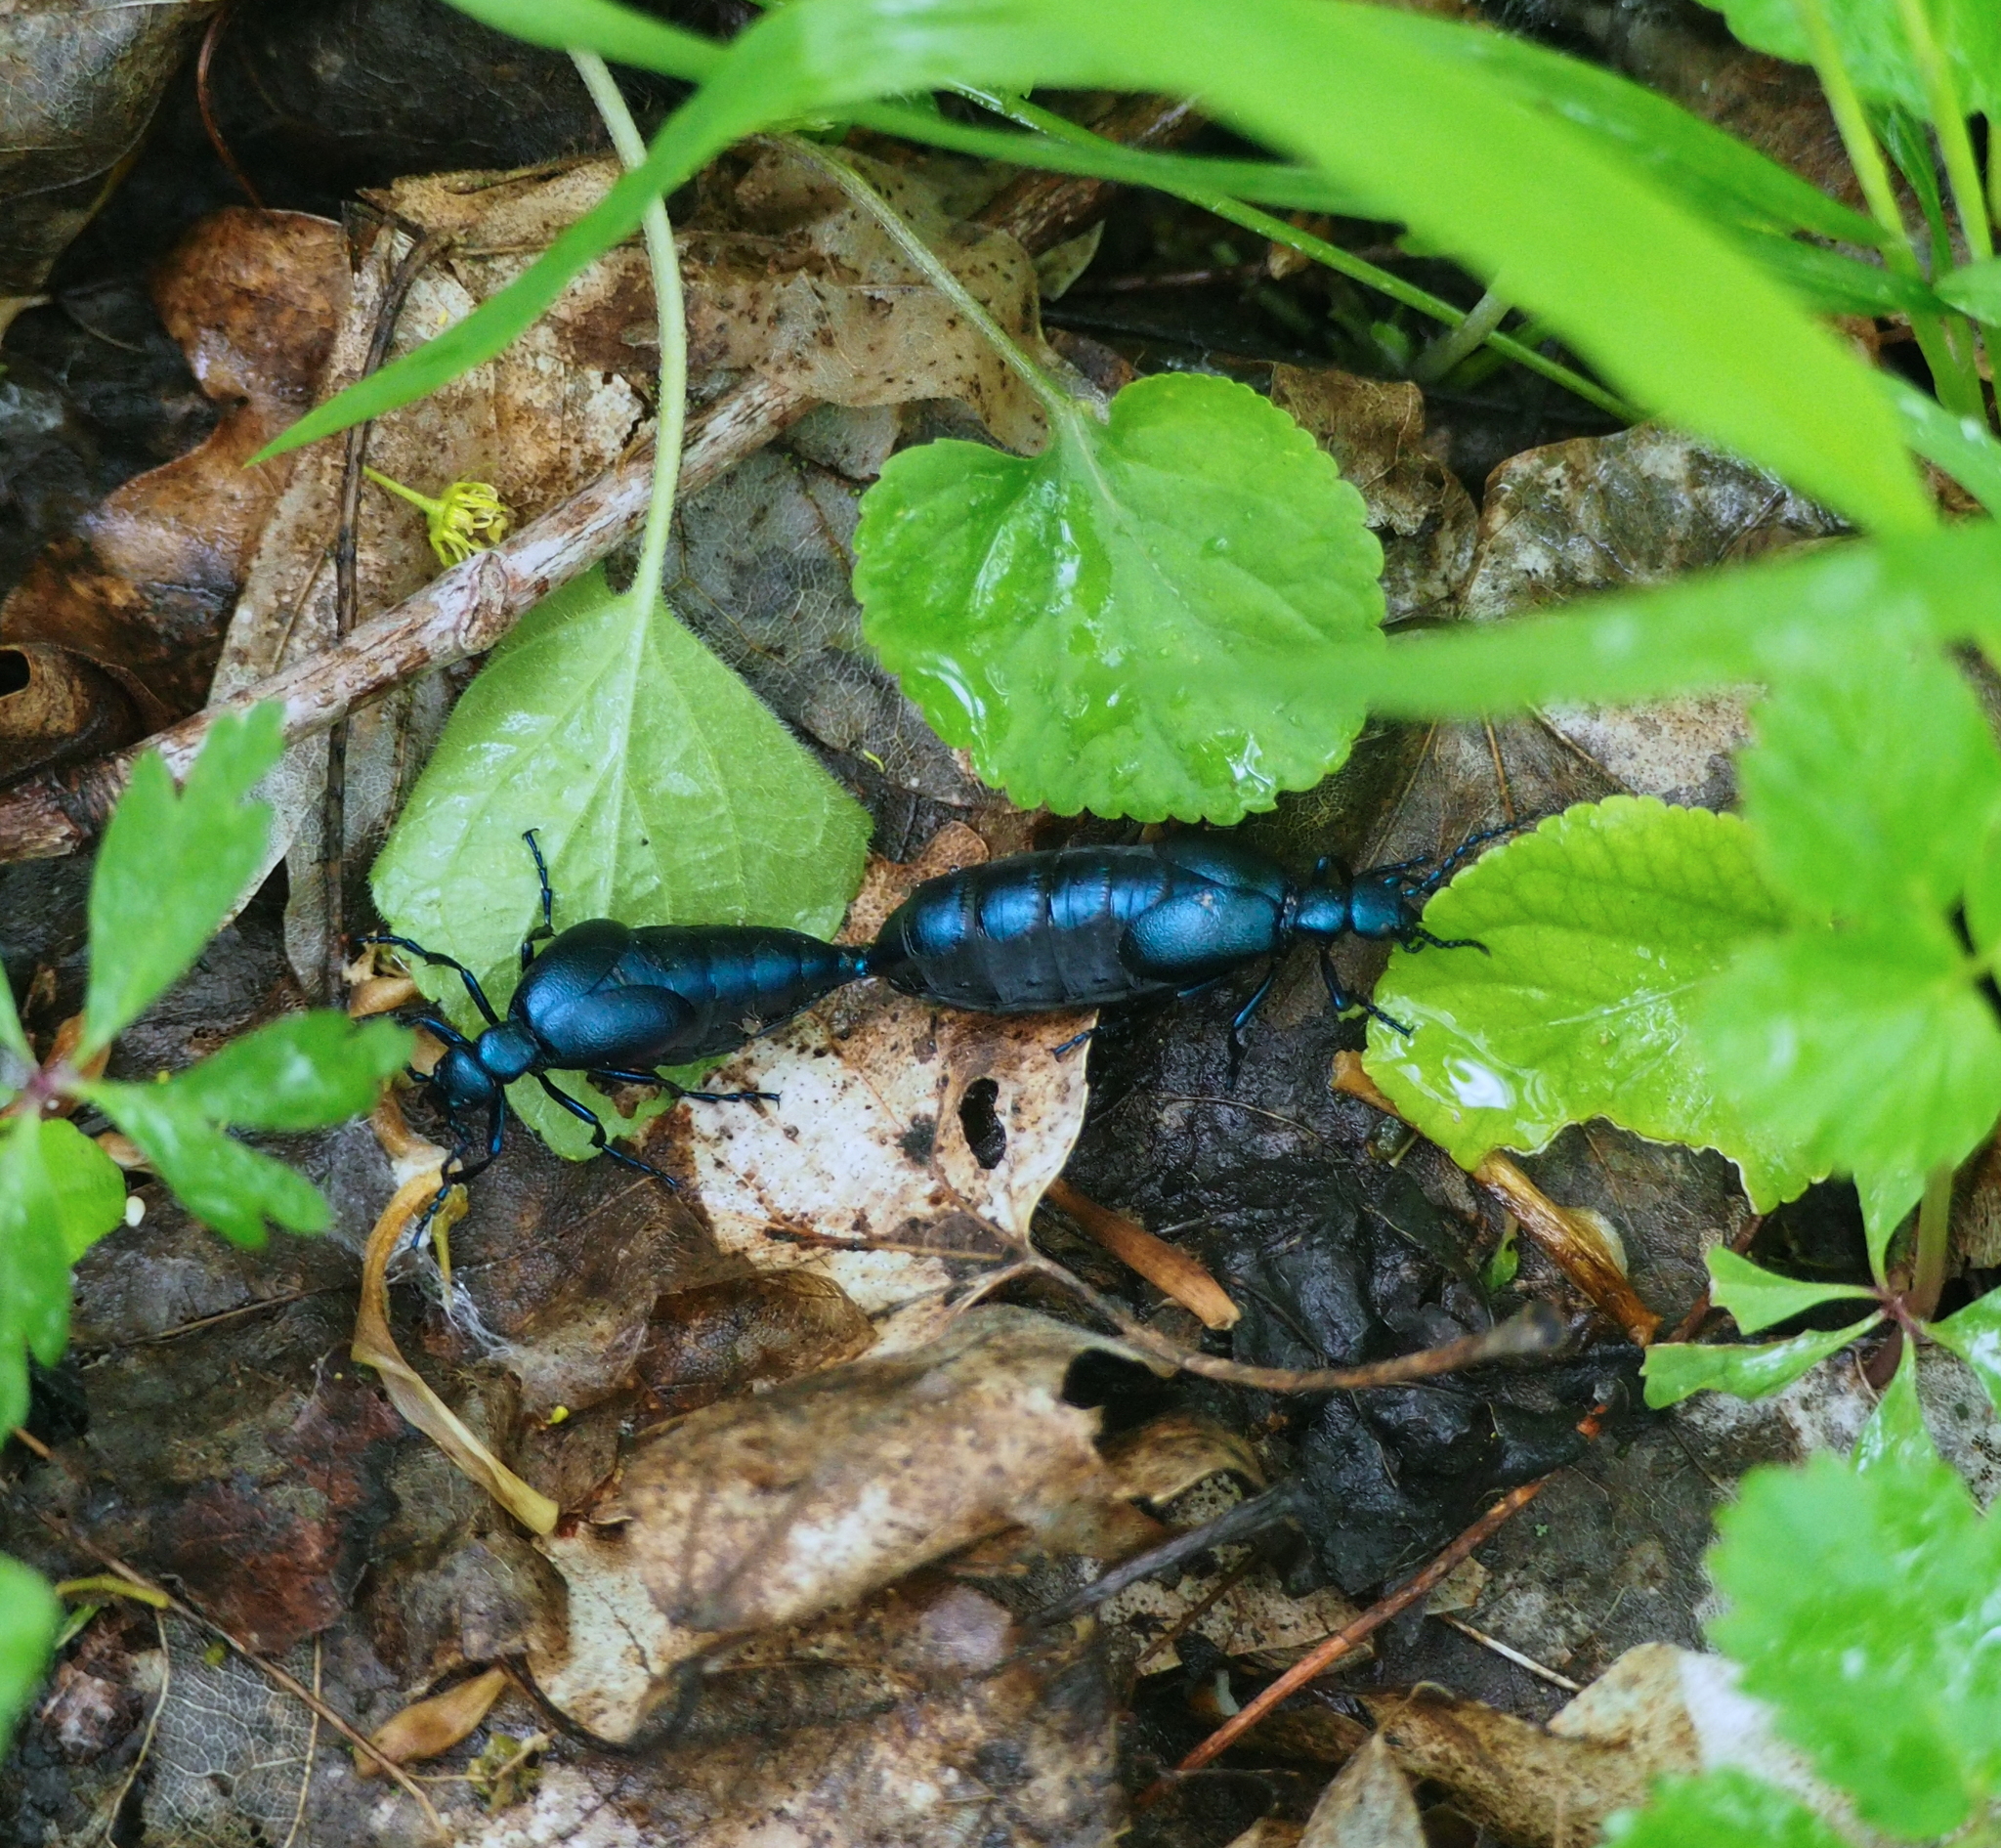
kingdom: Animalia
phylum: Arthropoda
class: Insecta
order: Coleoptera
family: Meloidae
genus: Meloe
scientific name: Meloe violaceus
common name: Violet oil-beetle
